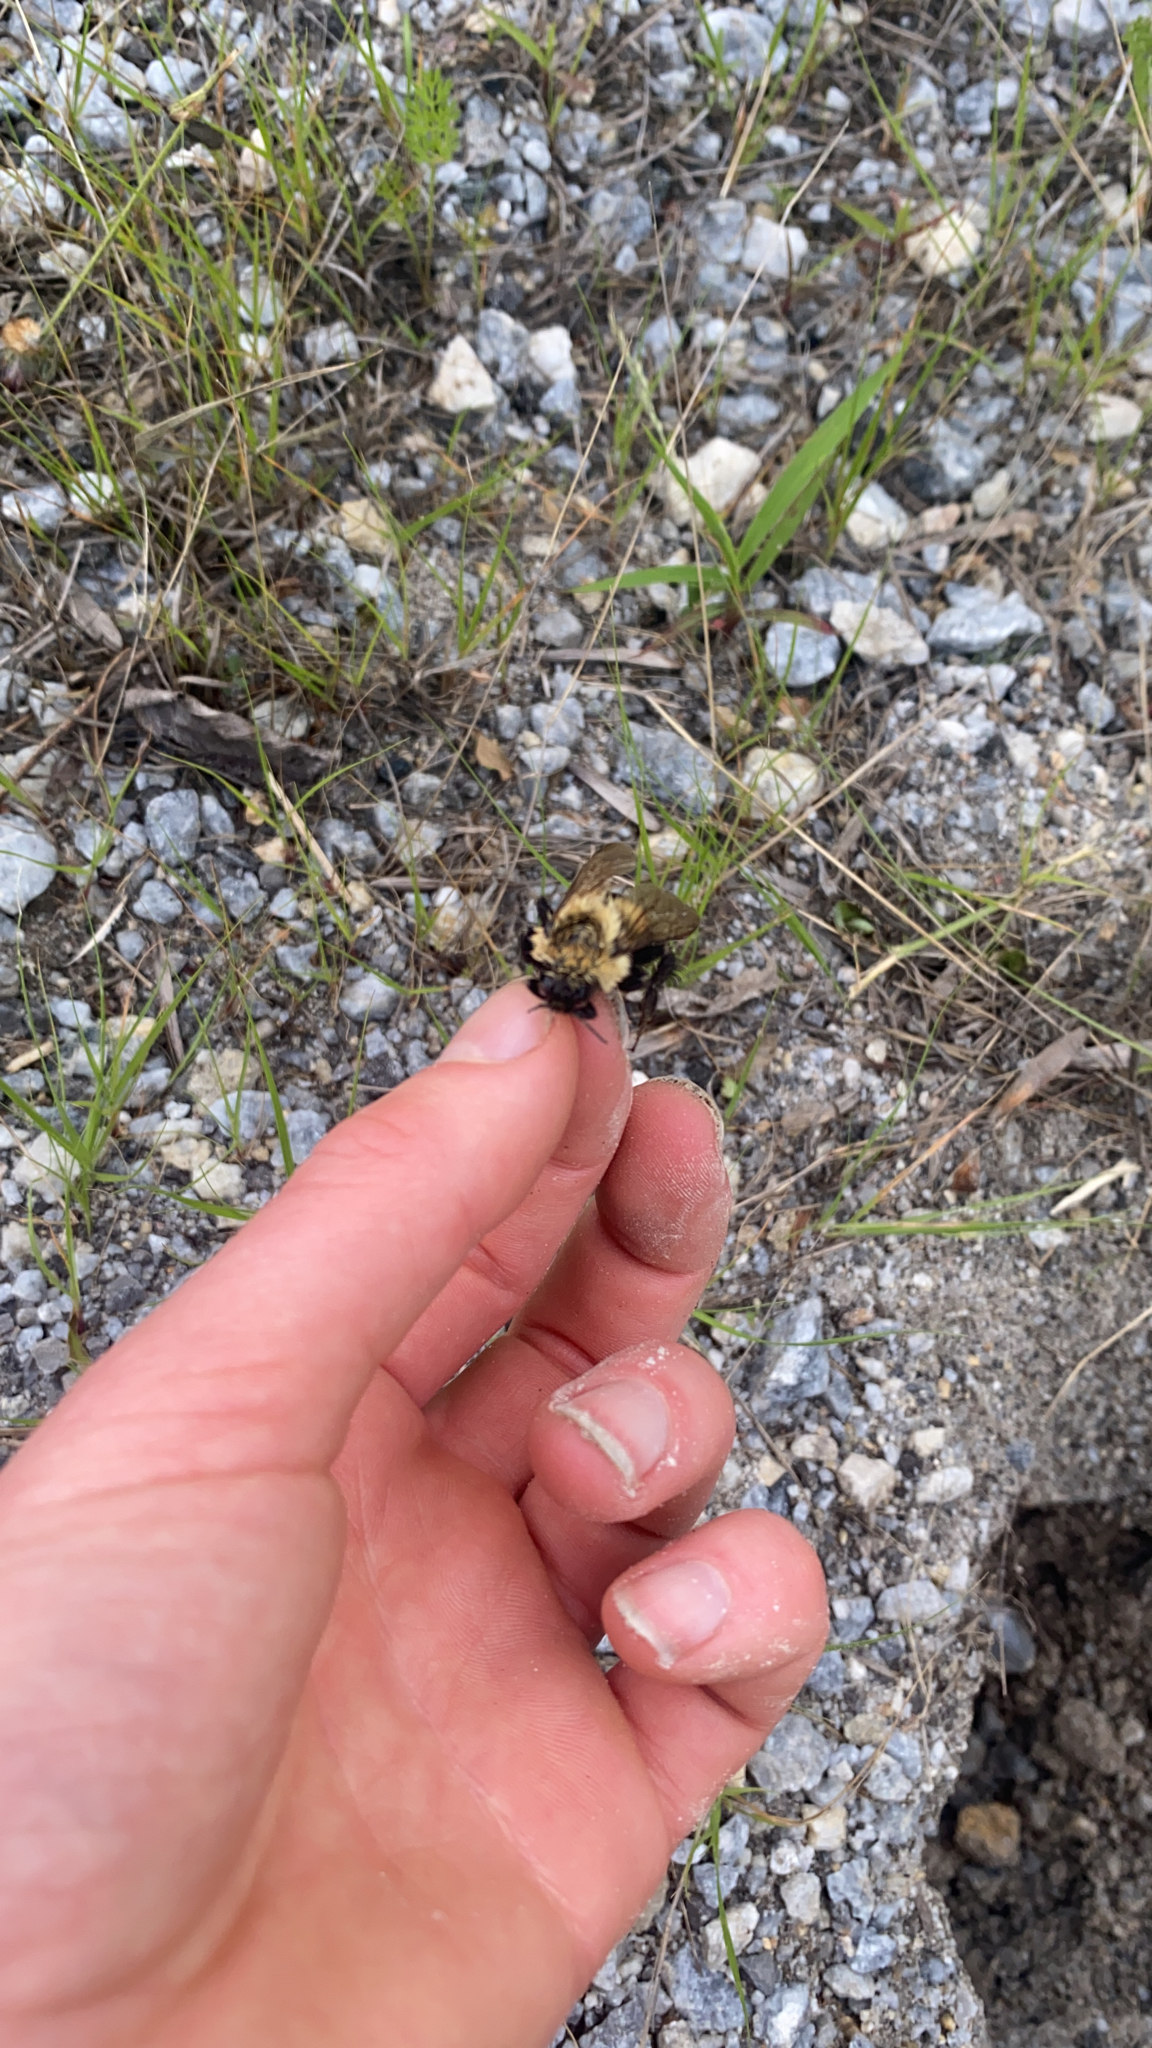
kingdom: Animalia
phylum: Arthropoda
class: Insecta
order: Diptera
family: Asilidae
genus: Laphria
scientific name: Laphria thoracica
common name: Bumble bee mimic robber fly
